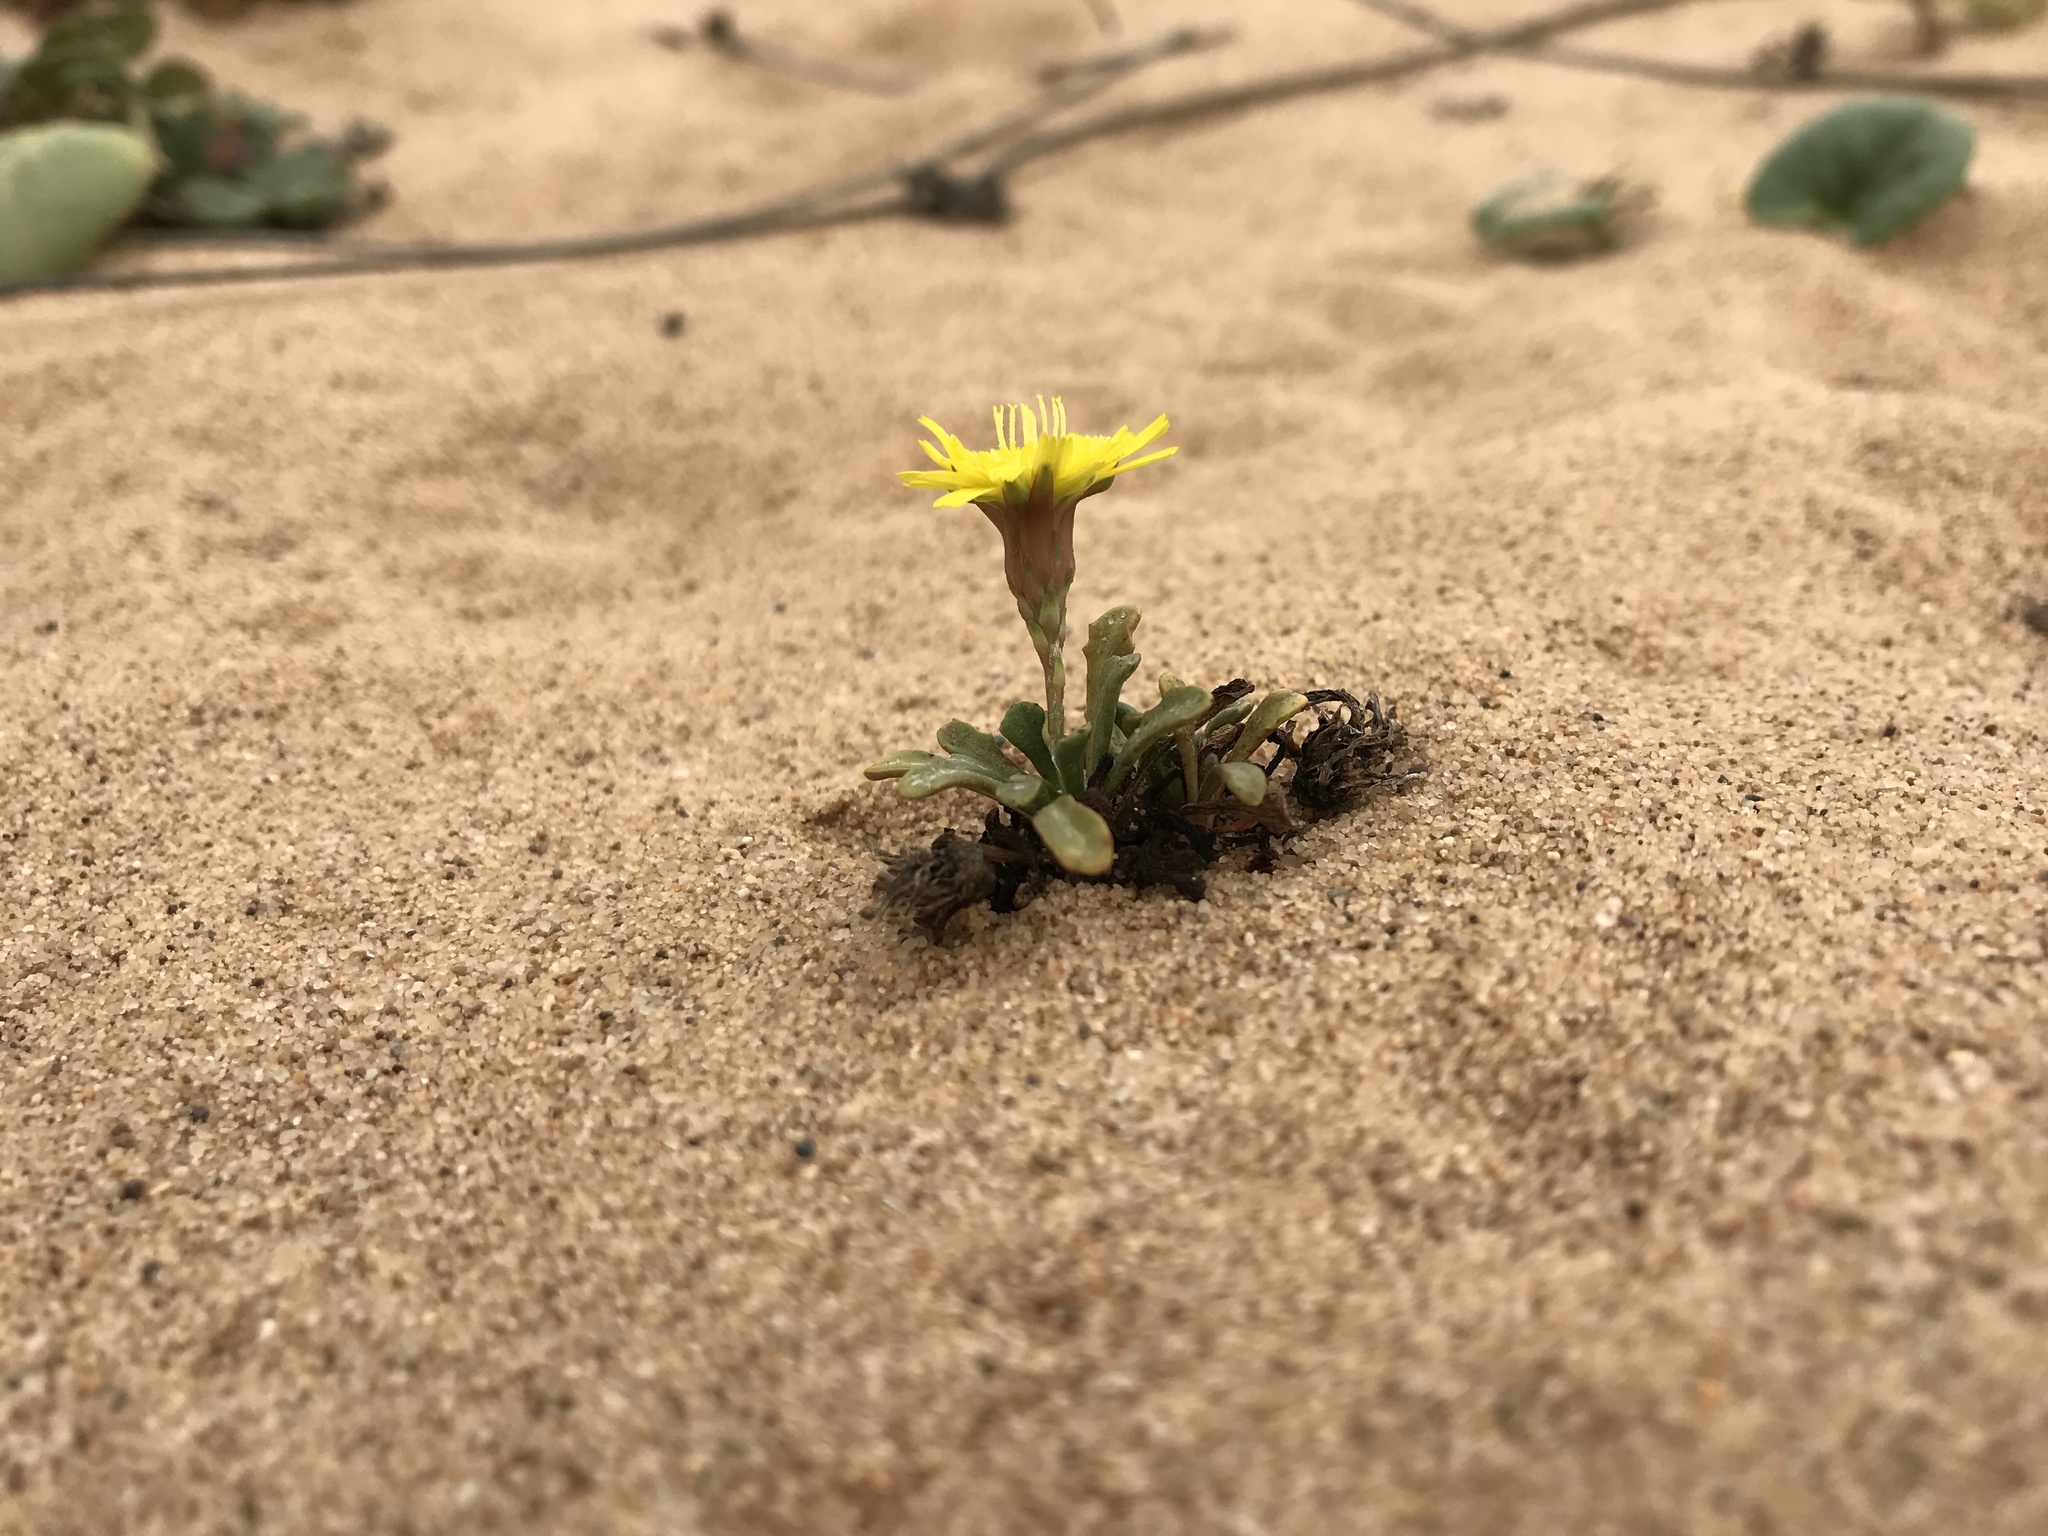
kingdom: Plantae
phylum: Tracheophyta
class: Magnoliopsida
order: Asterales
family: Asteraceae
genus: Malacothrix
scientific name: Malacothrix incana
